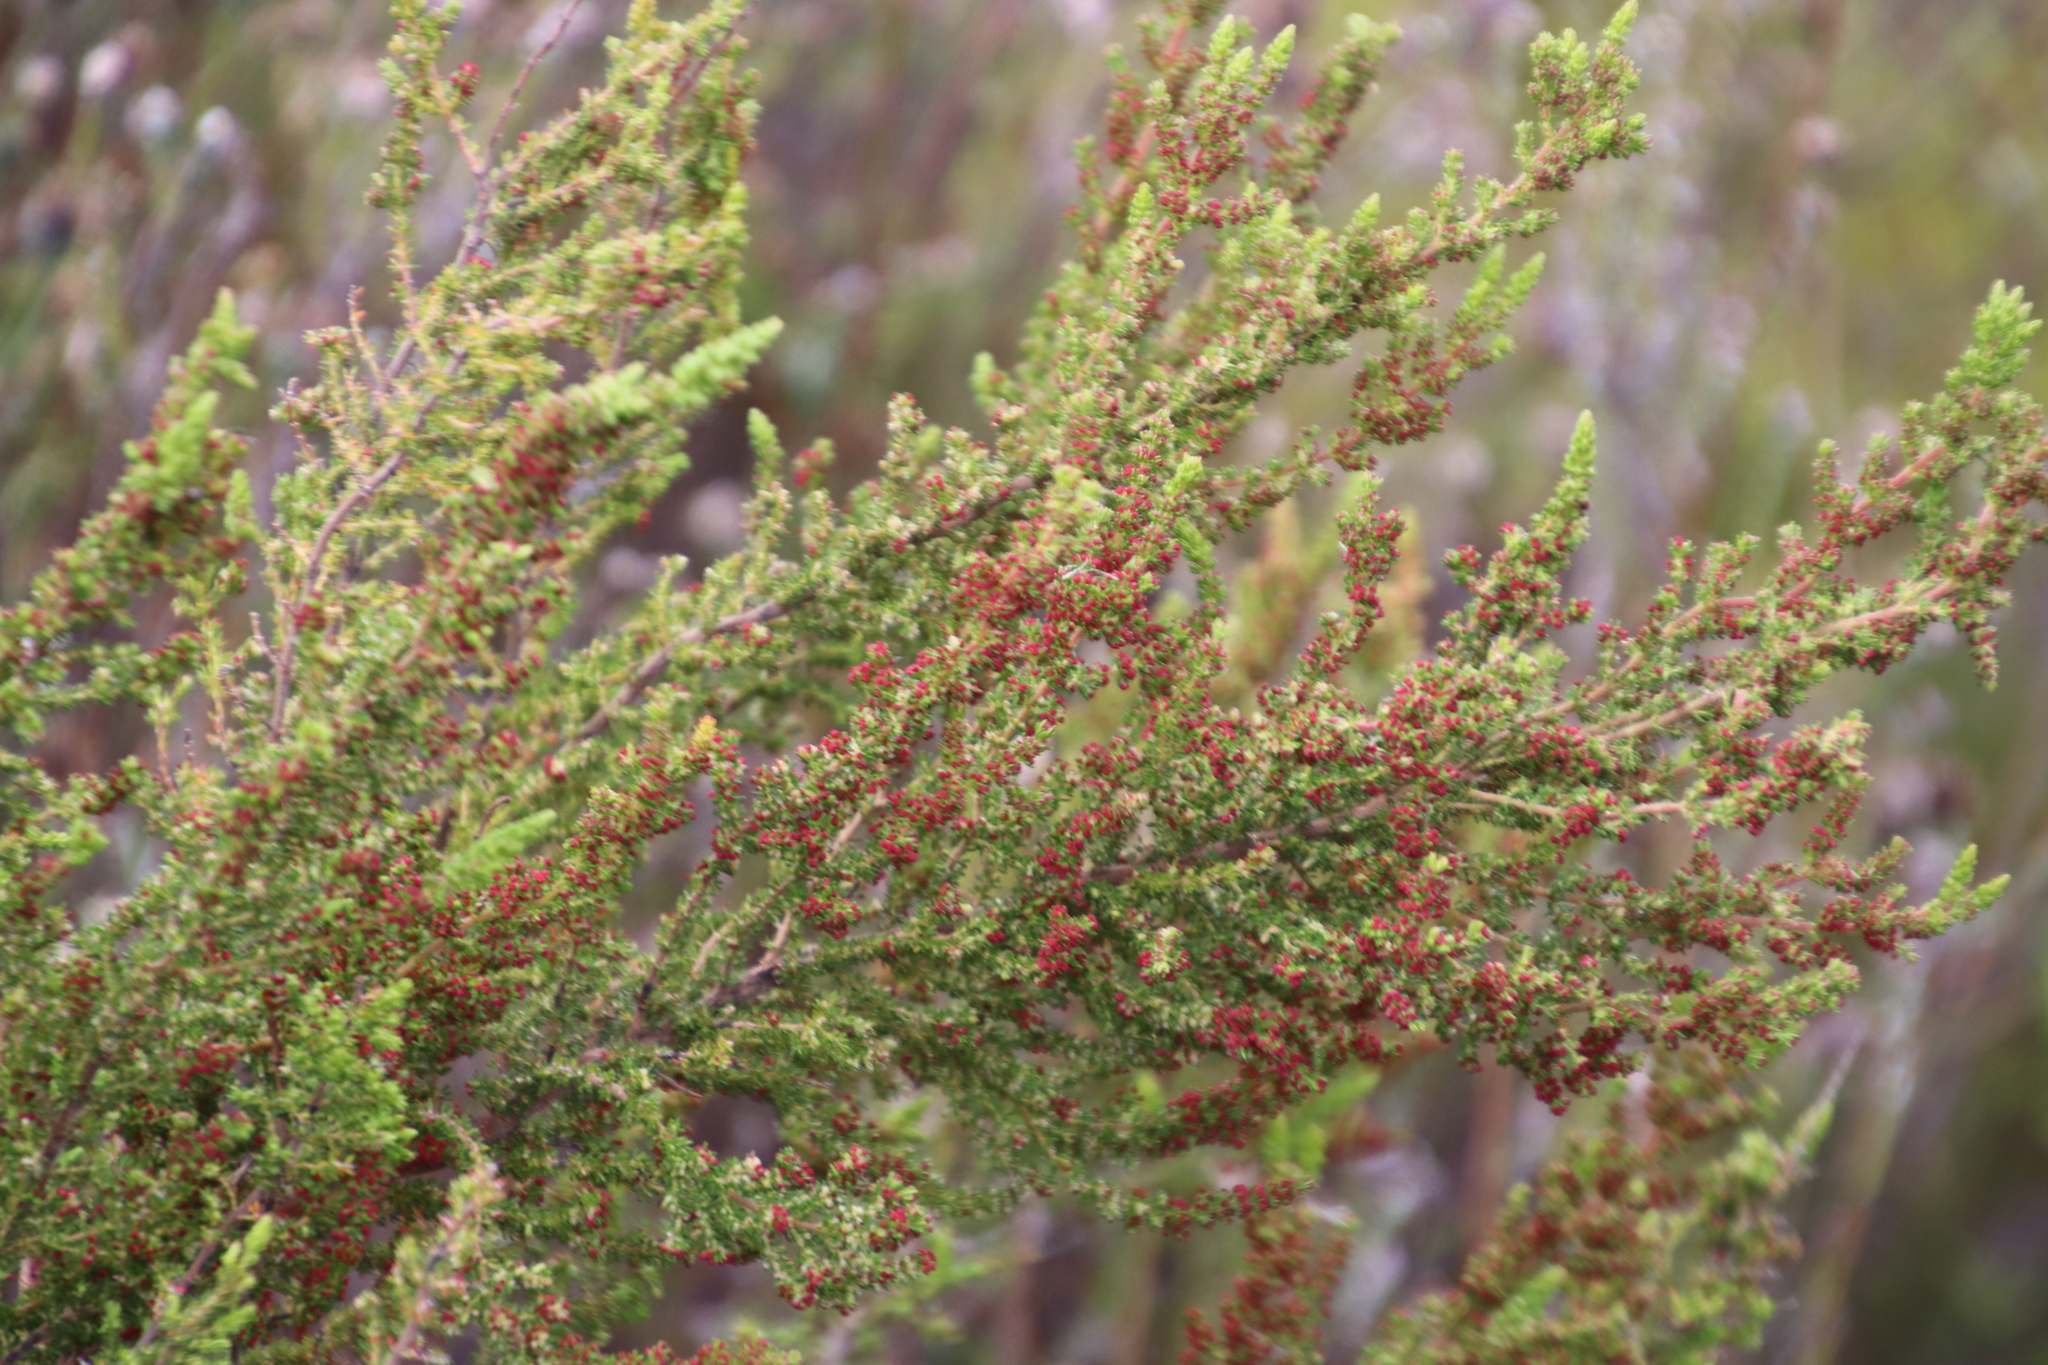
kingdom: Plantae
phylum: Tracheophyta
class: Magnoliopsida
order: Ericales
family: Ericaceae
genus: Erica
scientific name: Erica muscosa
